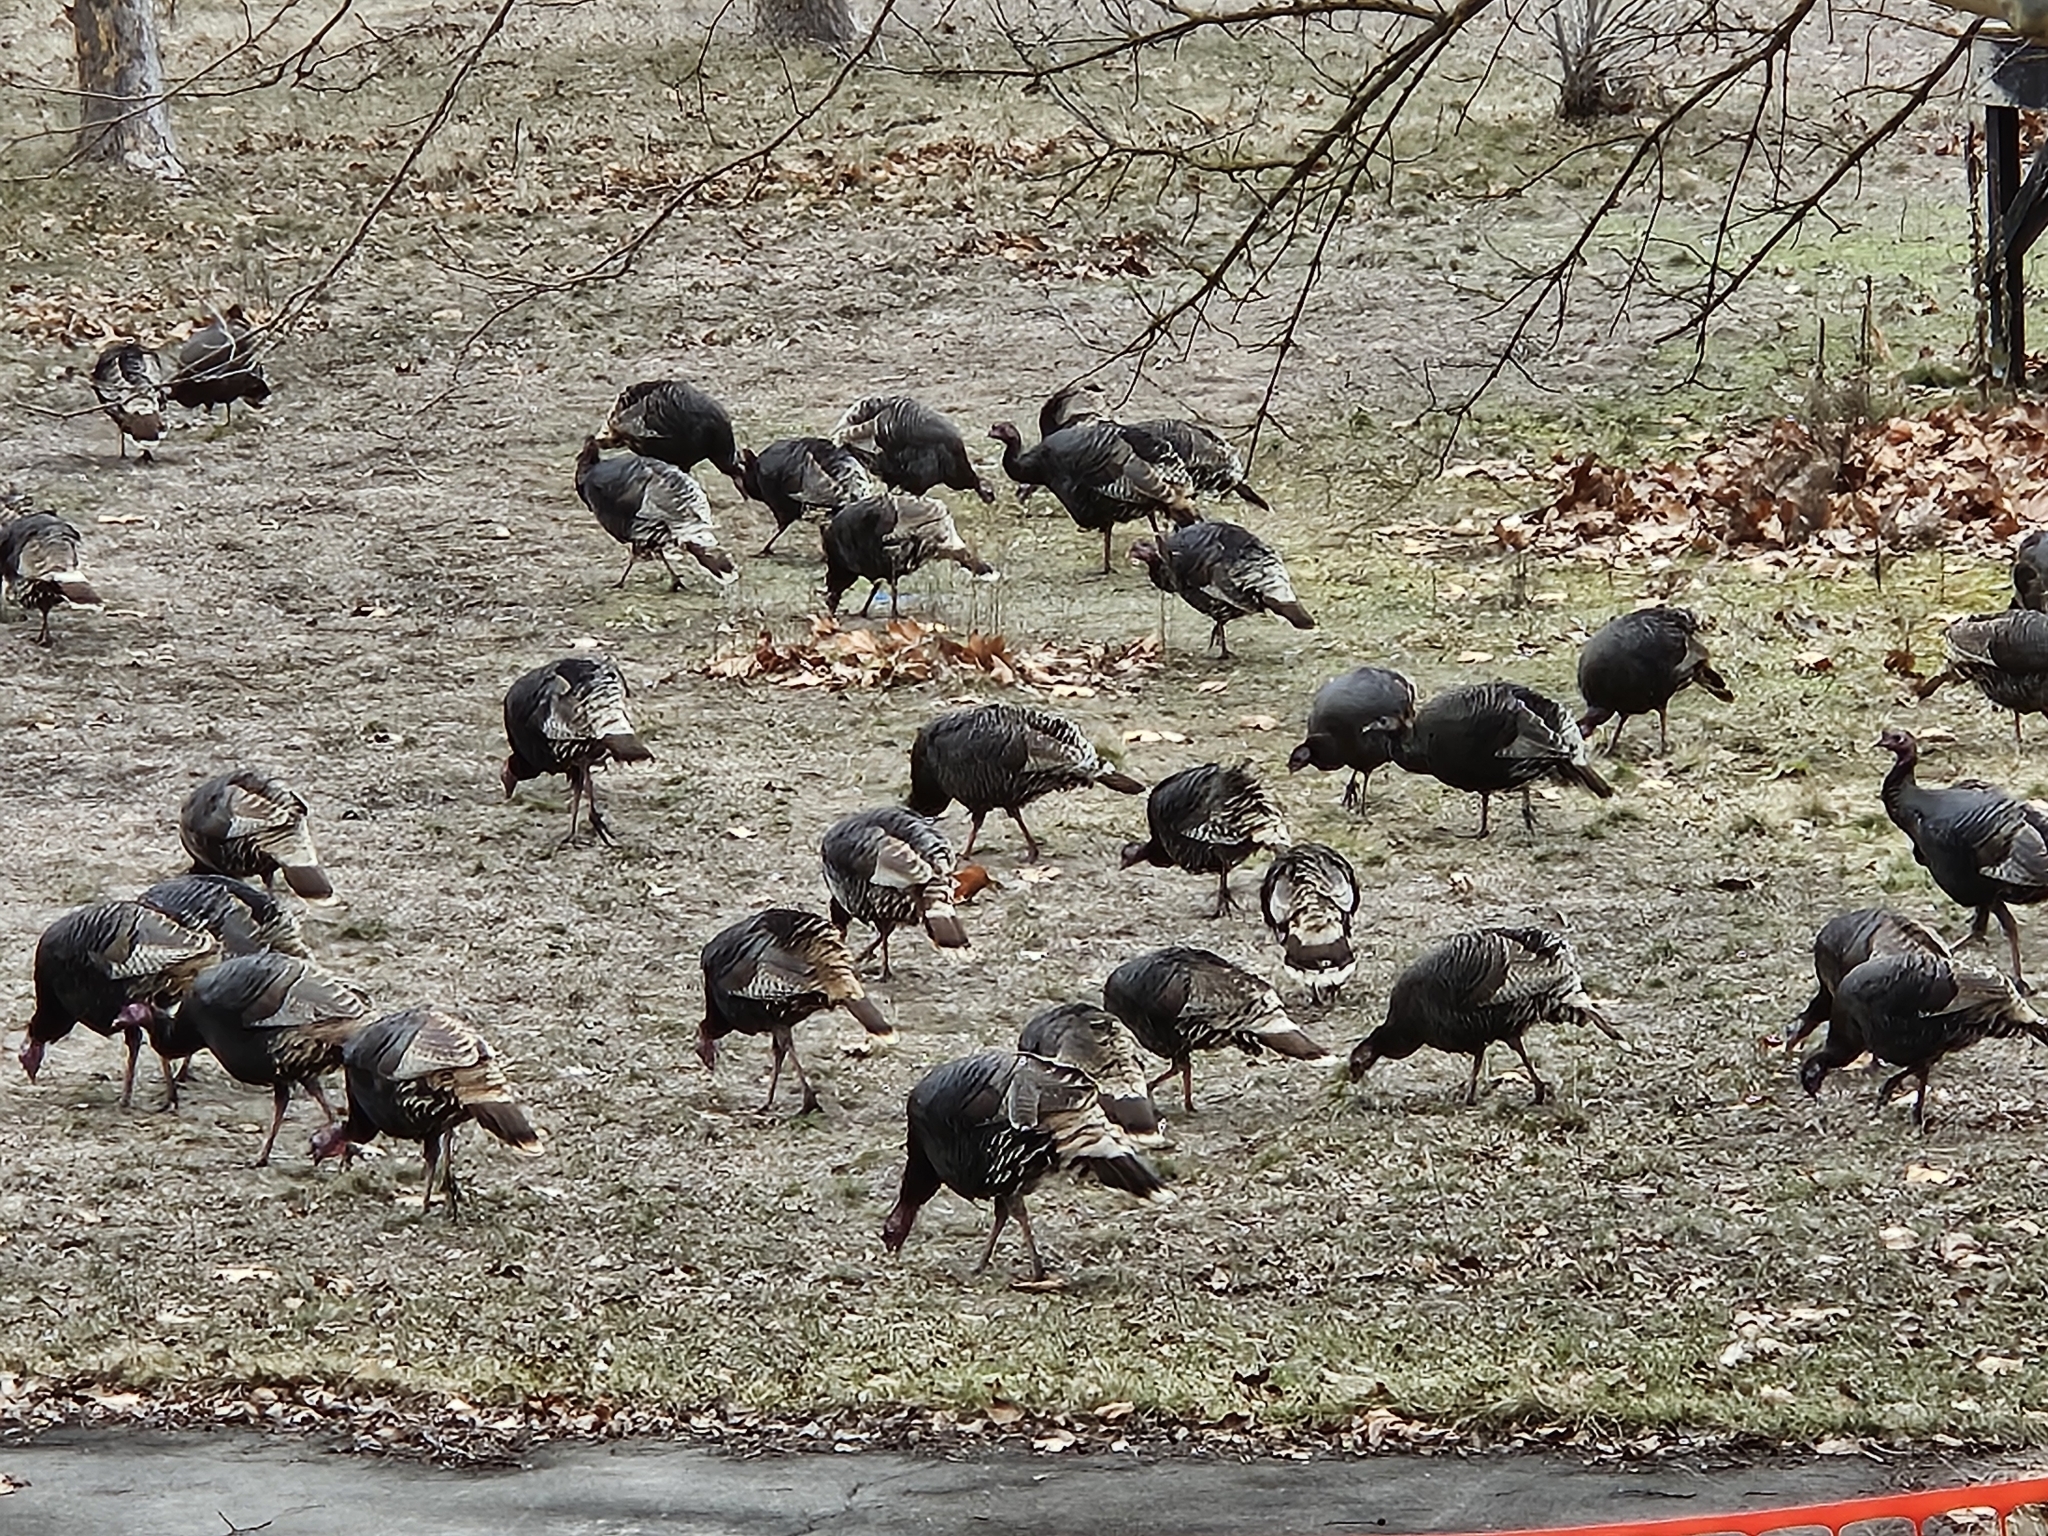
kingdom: Animalia
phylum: Chordata
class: Aves
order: Galliformes
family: Phasianidae
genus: Meleagris
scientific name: Meleagris gallopavo
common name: Wild turkey
